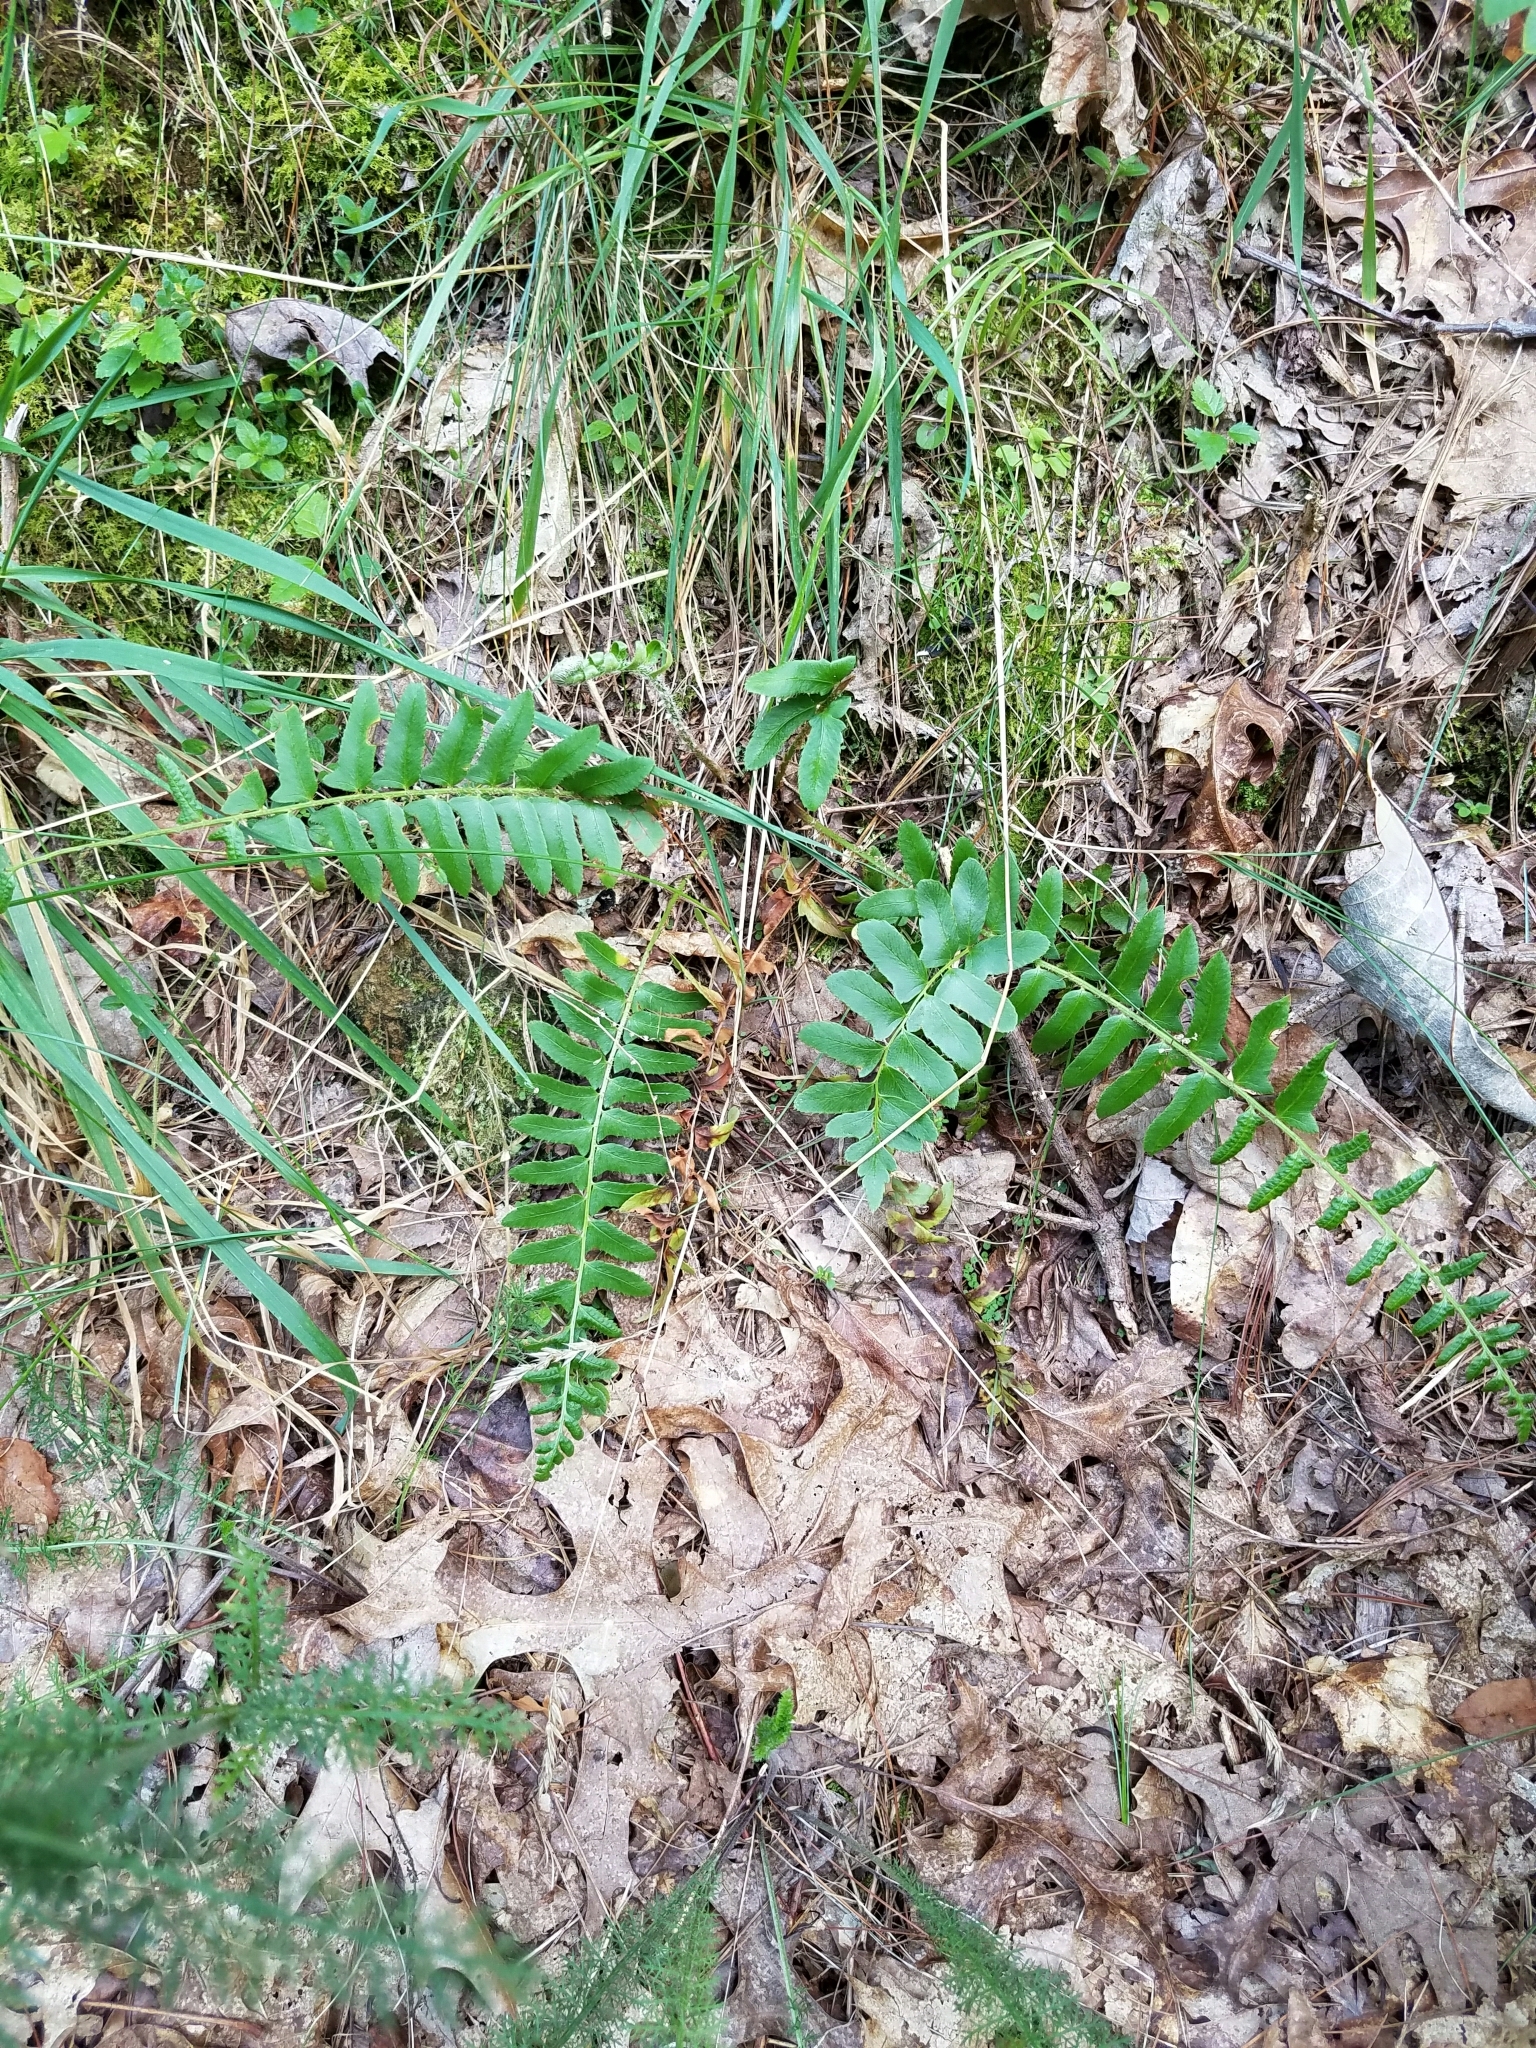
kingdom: Plantae
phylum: Tracheophyta
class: Polypodiopsida
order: Polypodiales
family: Dryopteridaceae
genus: Polystichum
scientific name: Polystichum acrostichoides
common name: Christmas fern
